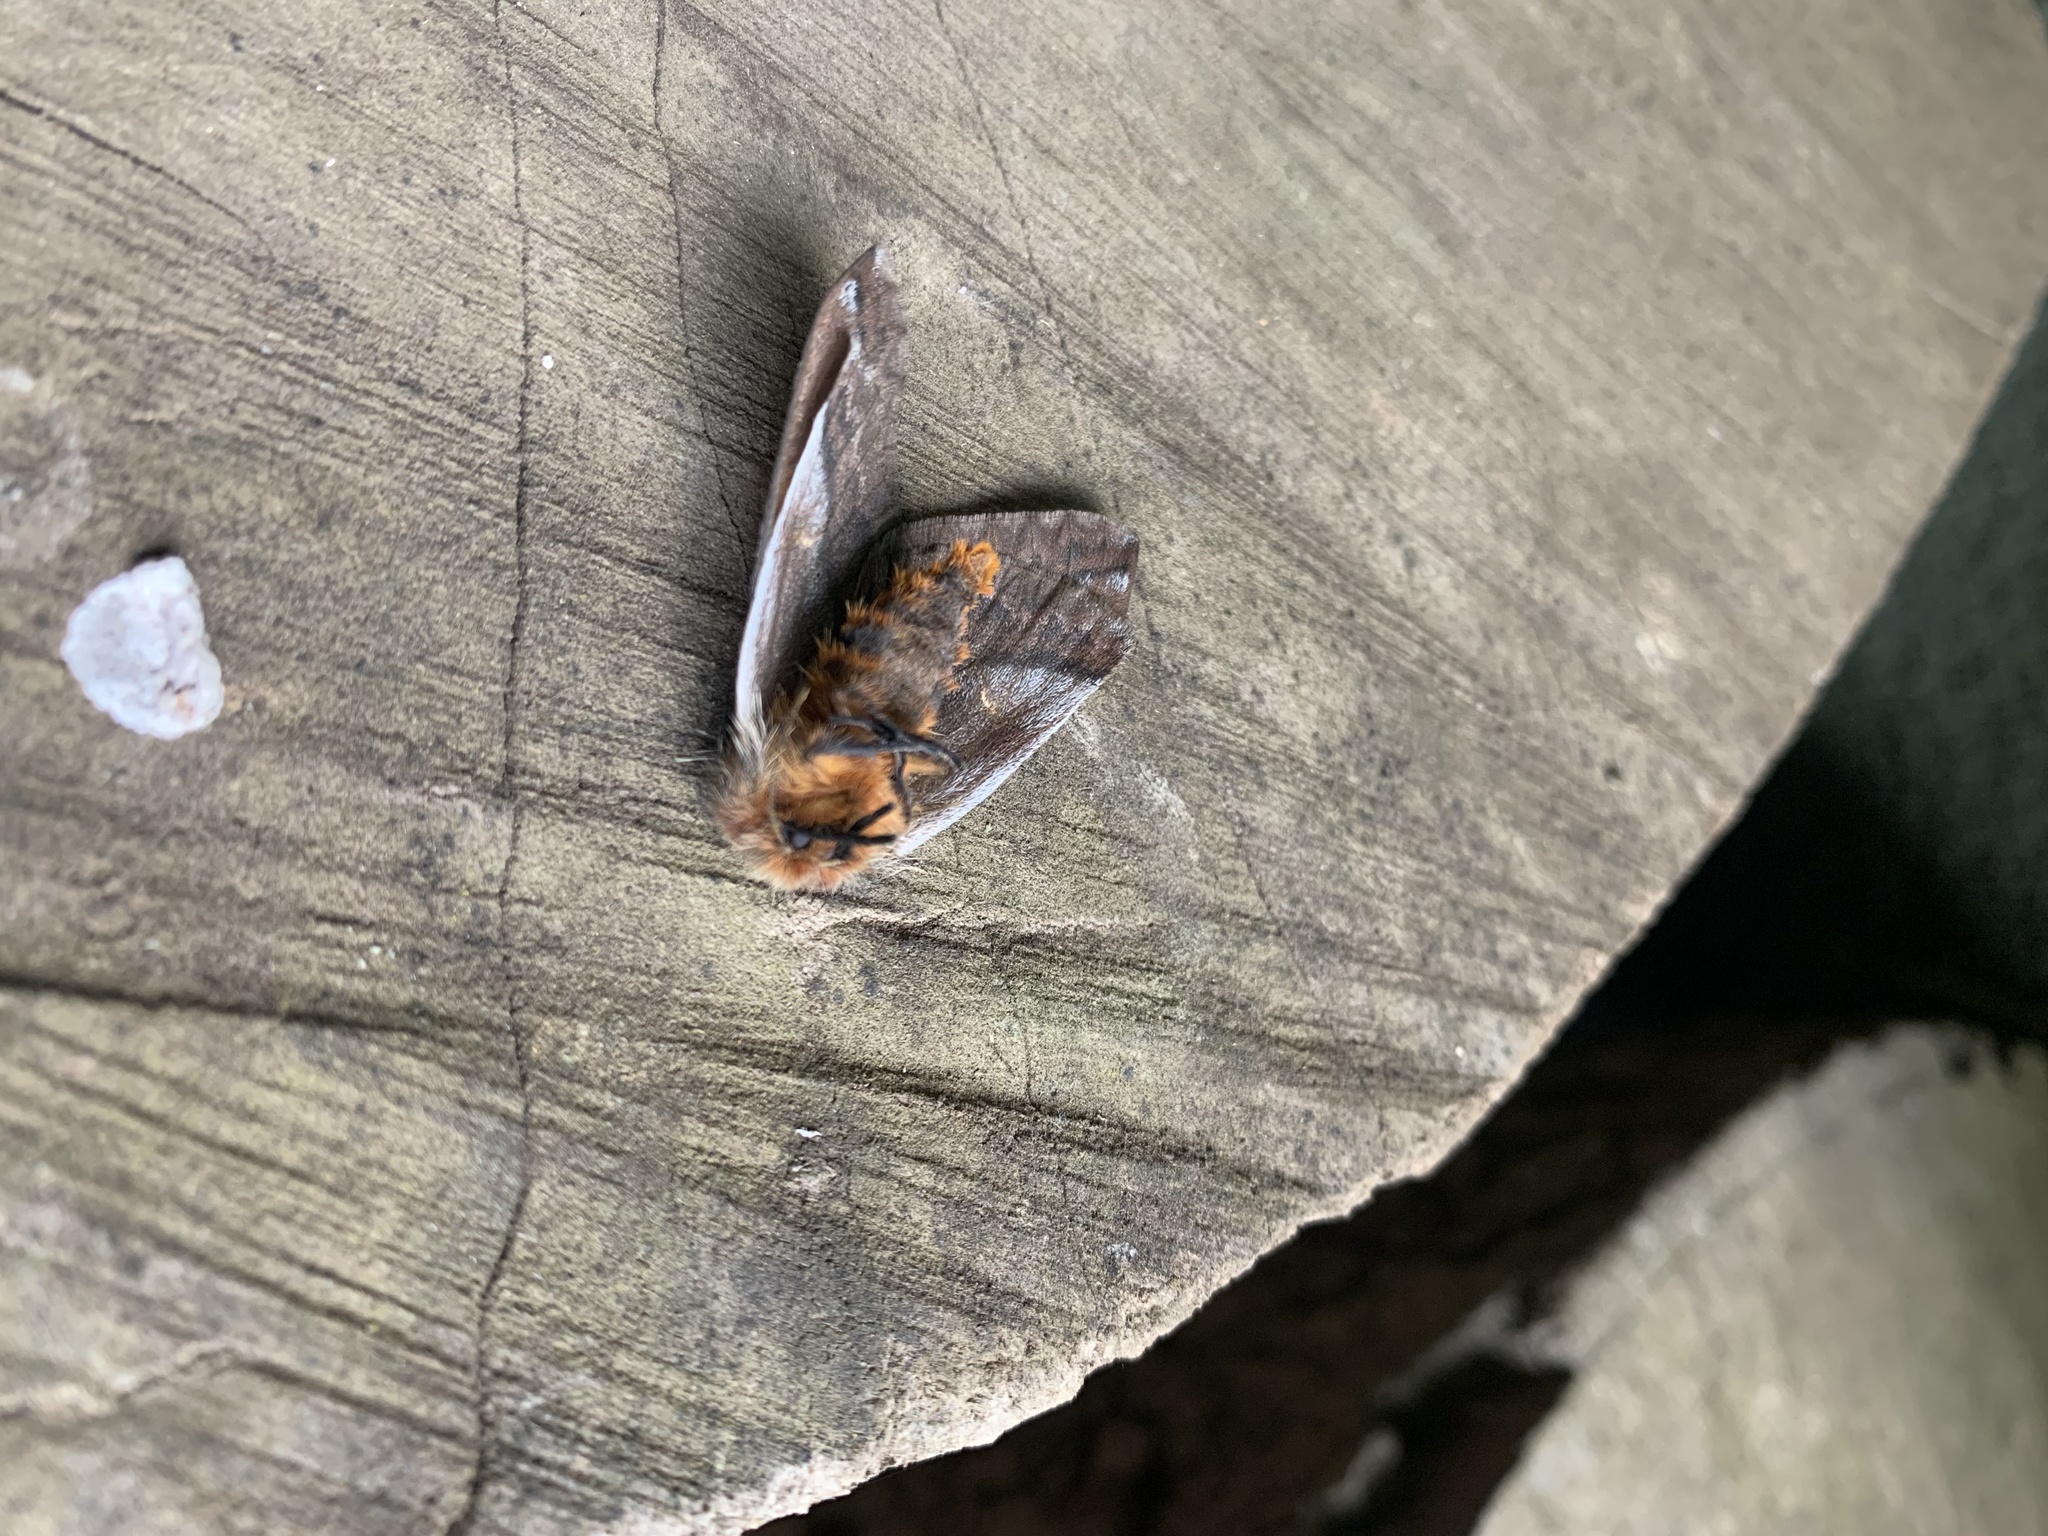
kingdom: Animalia
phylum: Arthropoda
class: Insecta
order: Lepidoptera
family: Saturniidae
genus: Ormiscodes
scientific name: Ormiscodes amphinome
